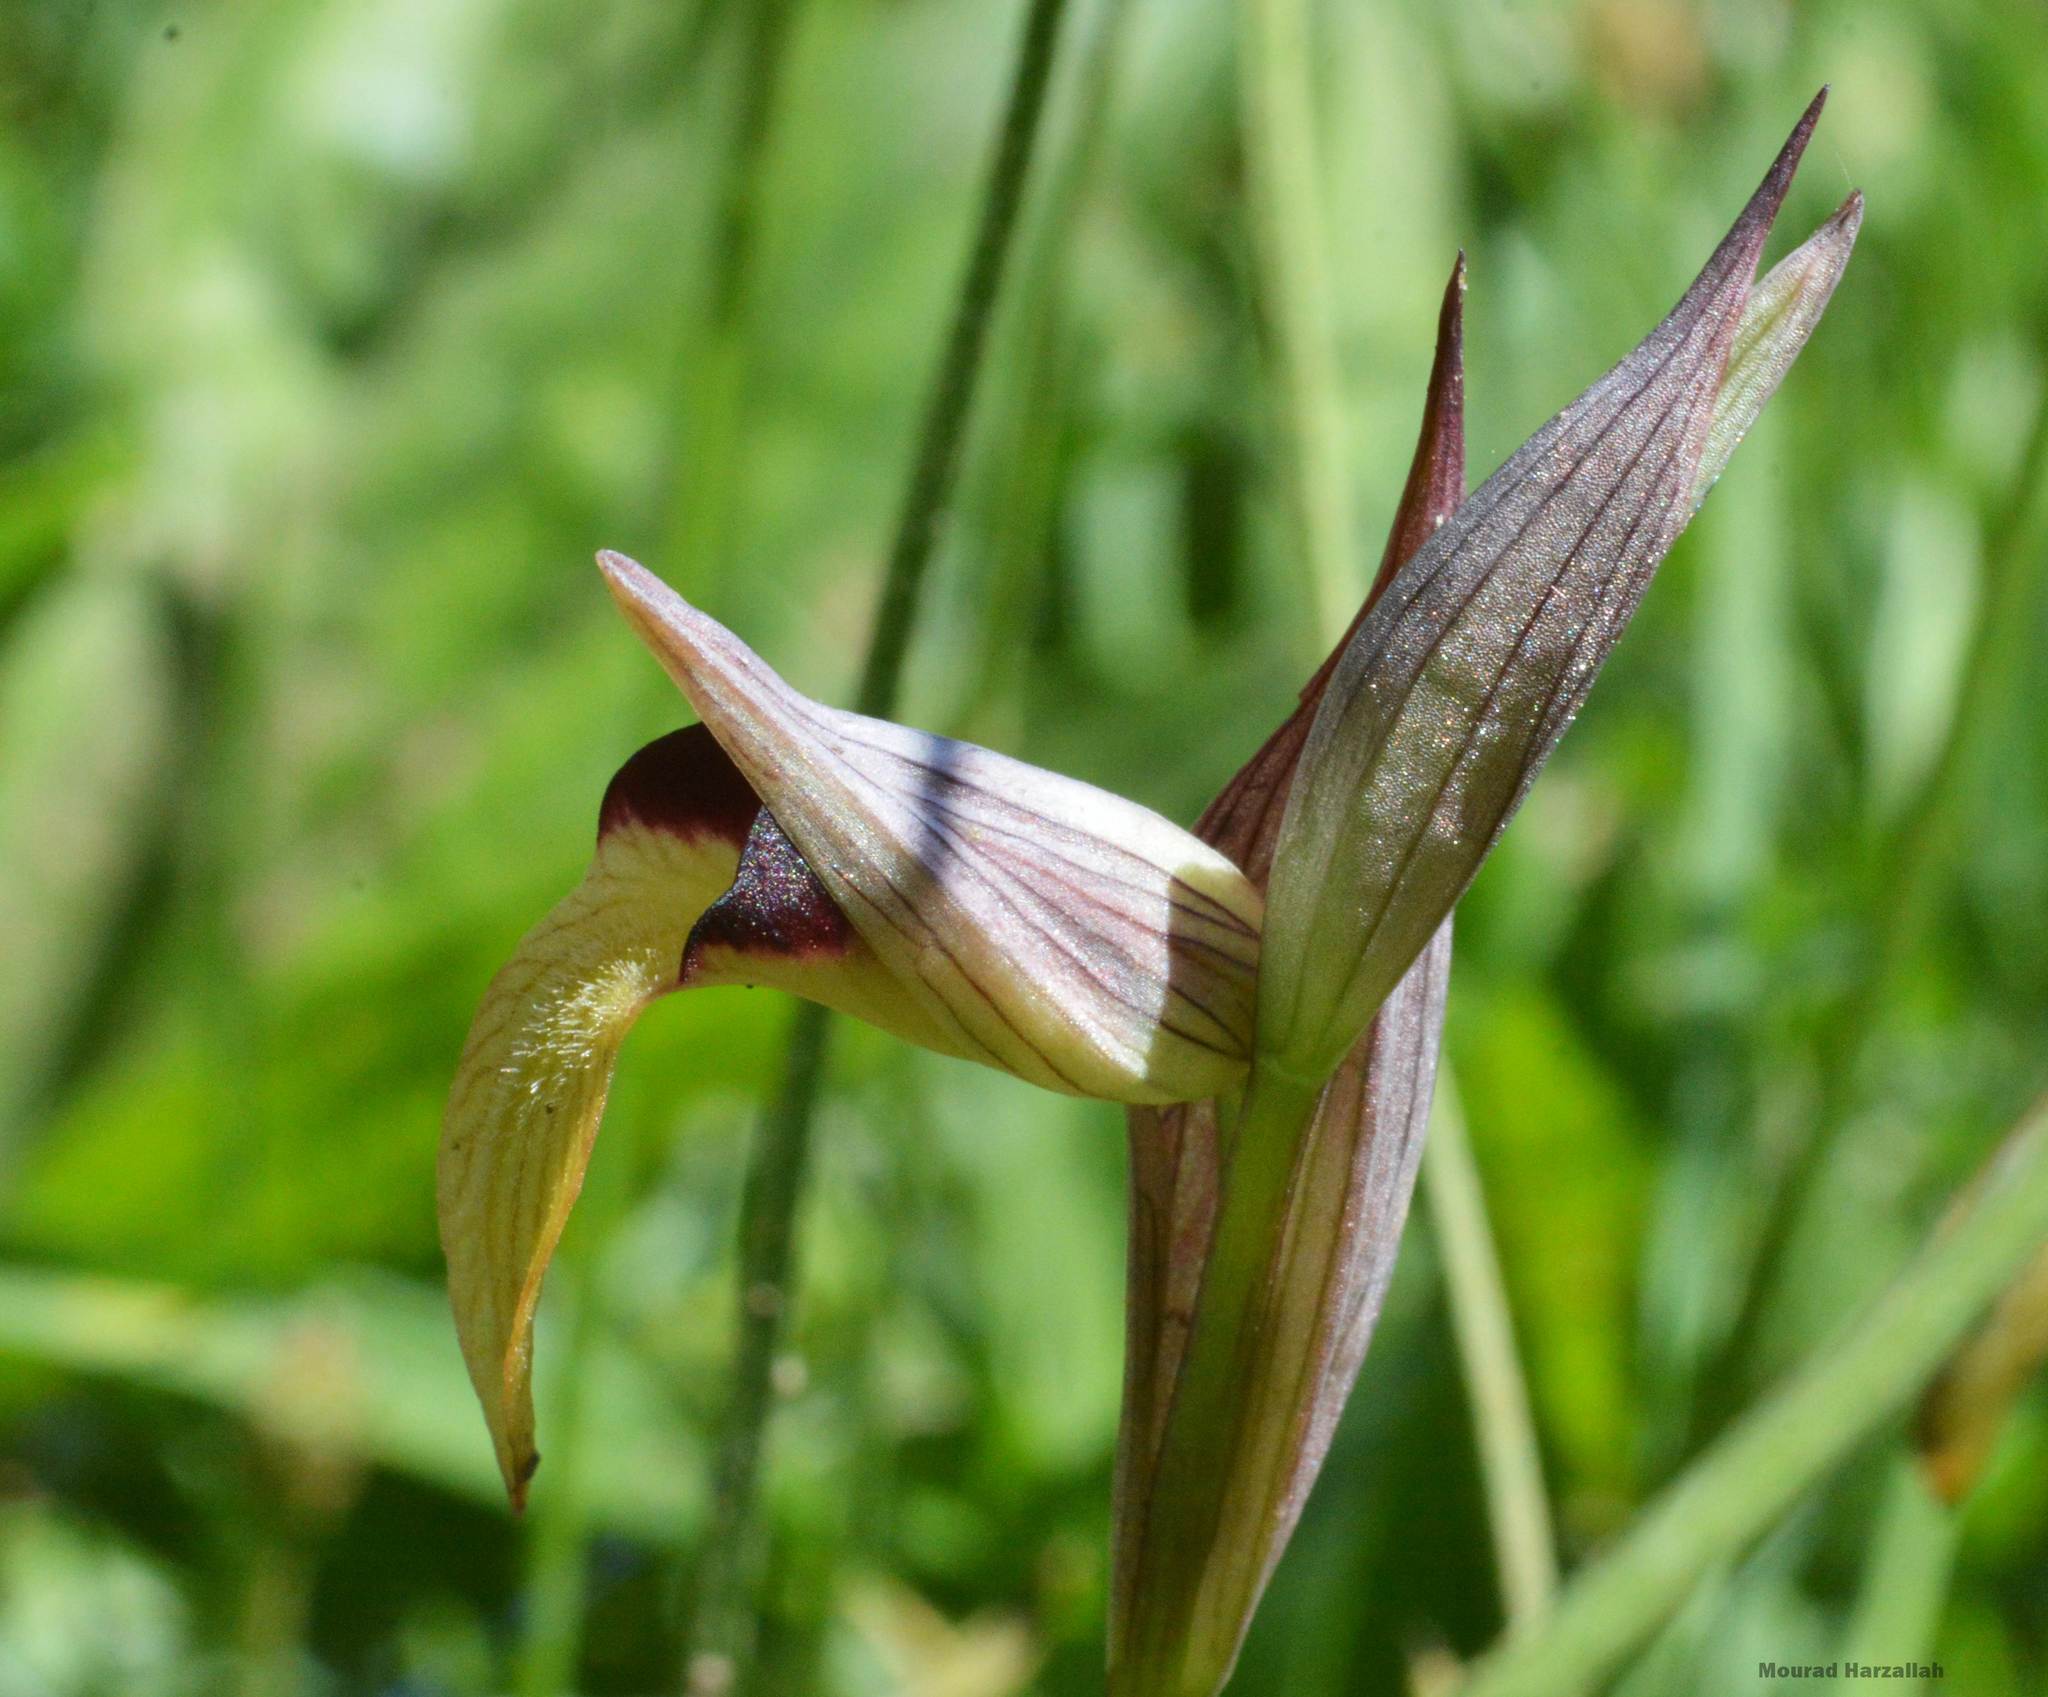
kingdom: Plantae
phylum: Tracheophyta
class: Liliopsida
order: Asparagales
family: Orchidaceae
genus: Serapias
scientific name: Serapias lingua
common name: Tongue-orchid
